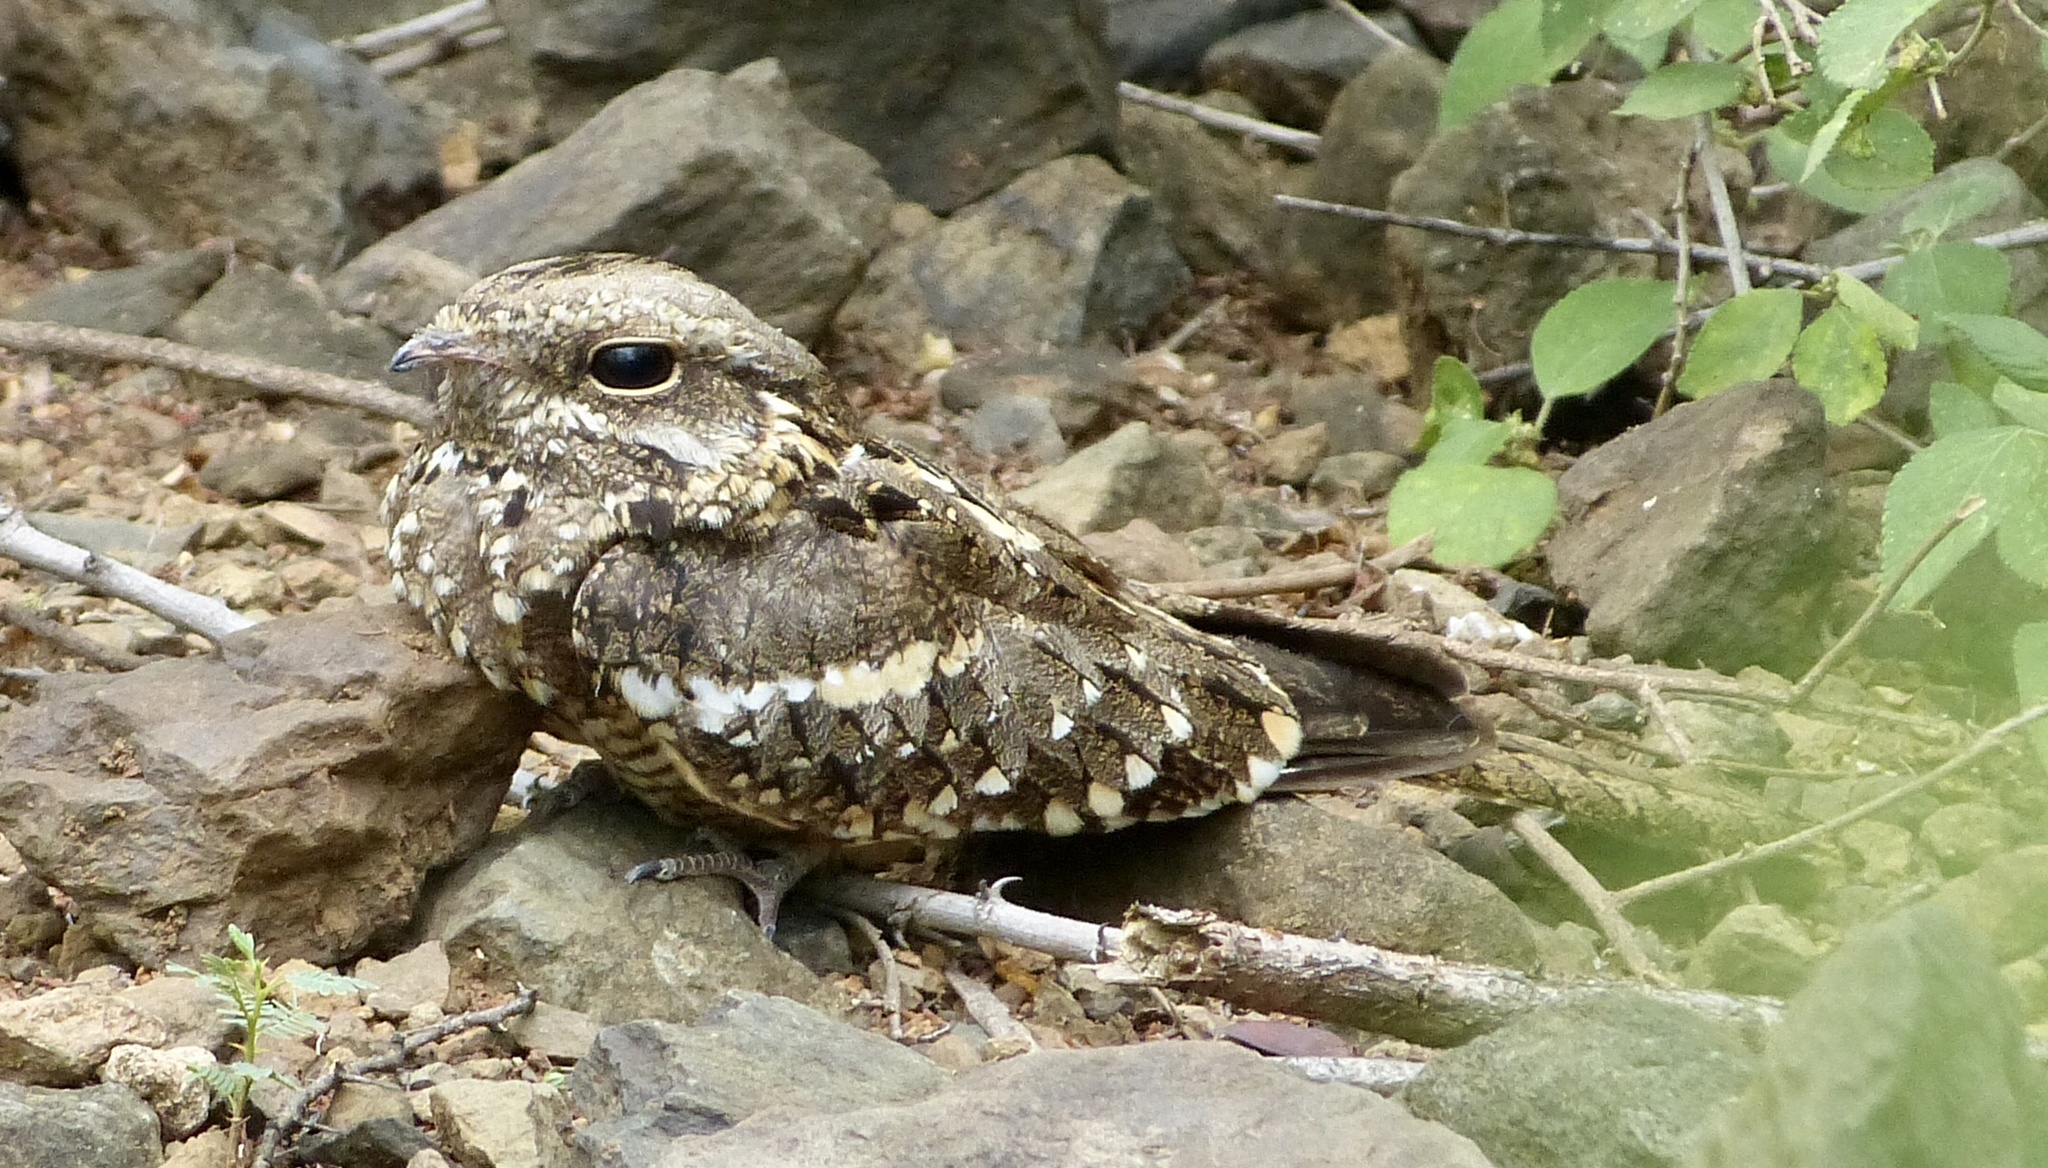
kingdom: Animalia
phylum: Chordata
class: Aves
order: Caprimulgiformes
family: Caprimulgidae
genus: Caprimulgus
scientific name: Caprimulgus clarus
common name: Slender-tailed nightjar
